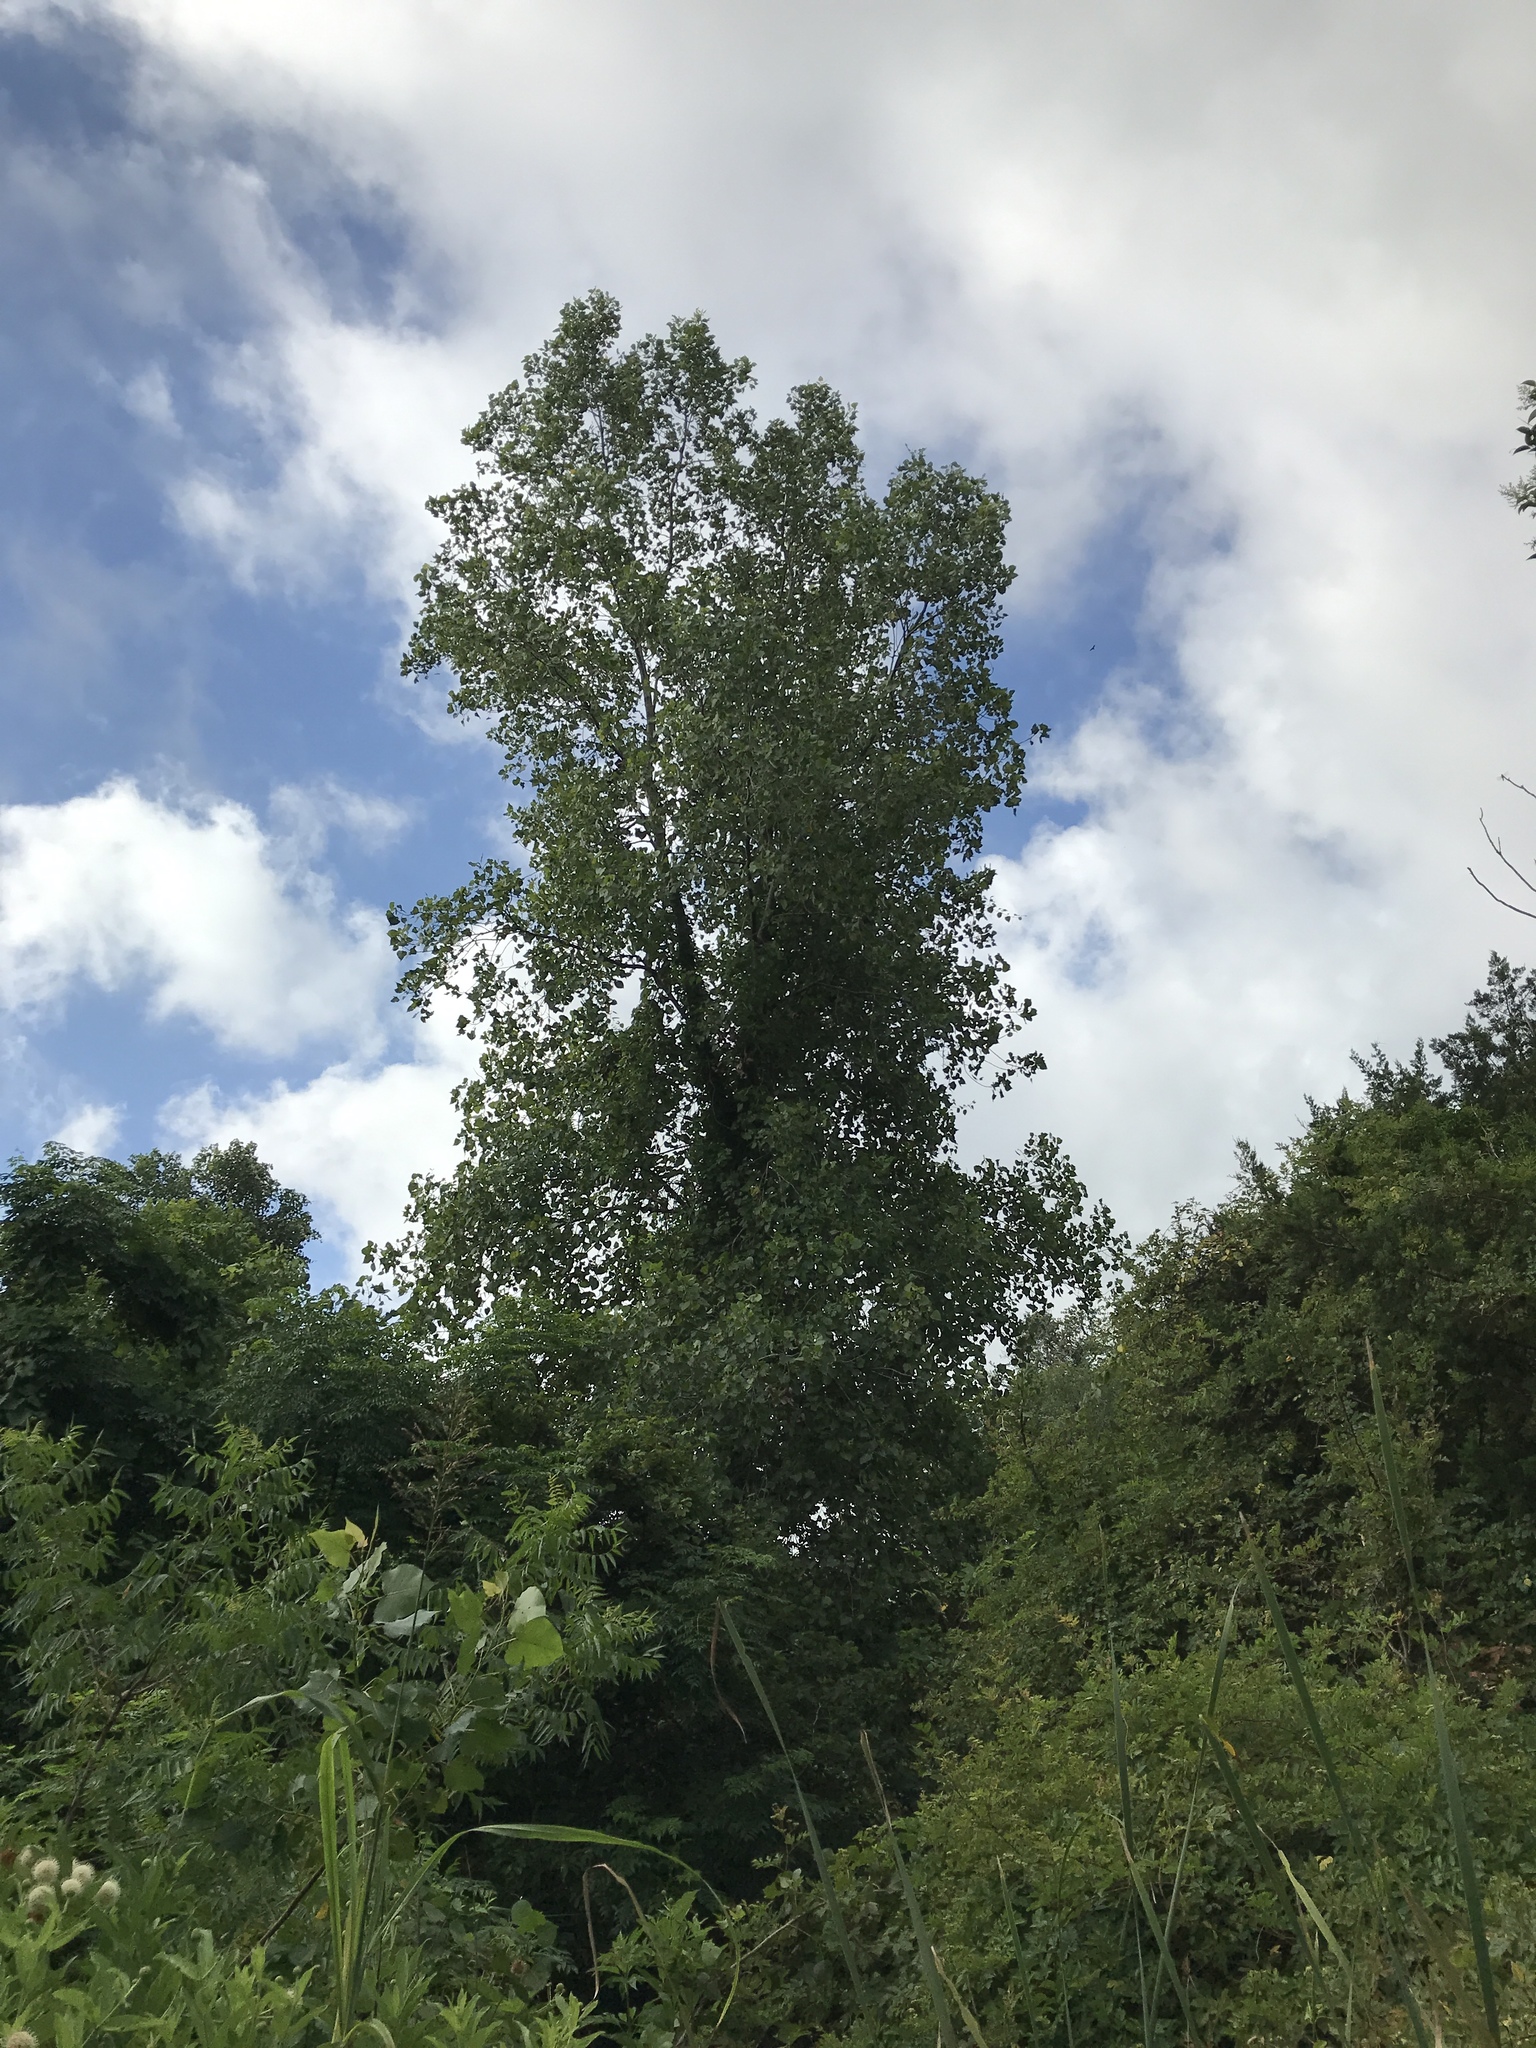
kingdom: Plantae
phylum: Tracheophyta
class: Magnoliopsida
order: Malpighiales
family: Salicaceae
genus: Populus
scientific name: Populus deltoides
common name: Eastern cottonwood
